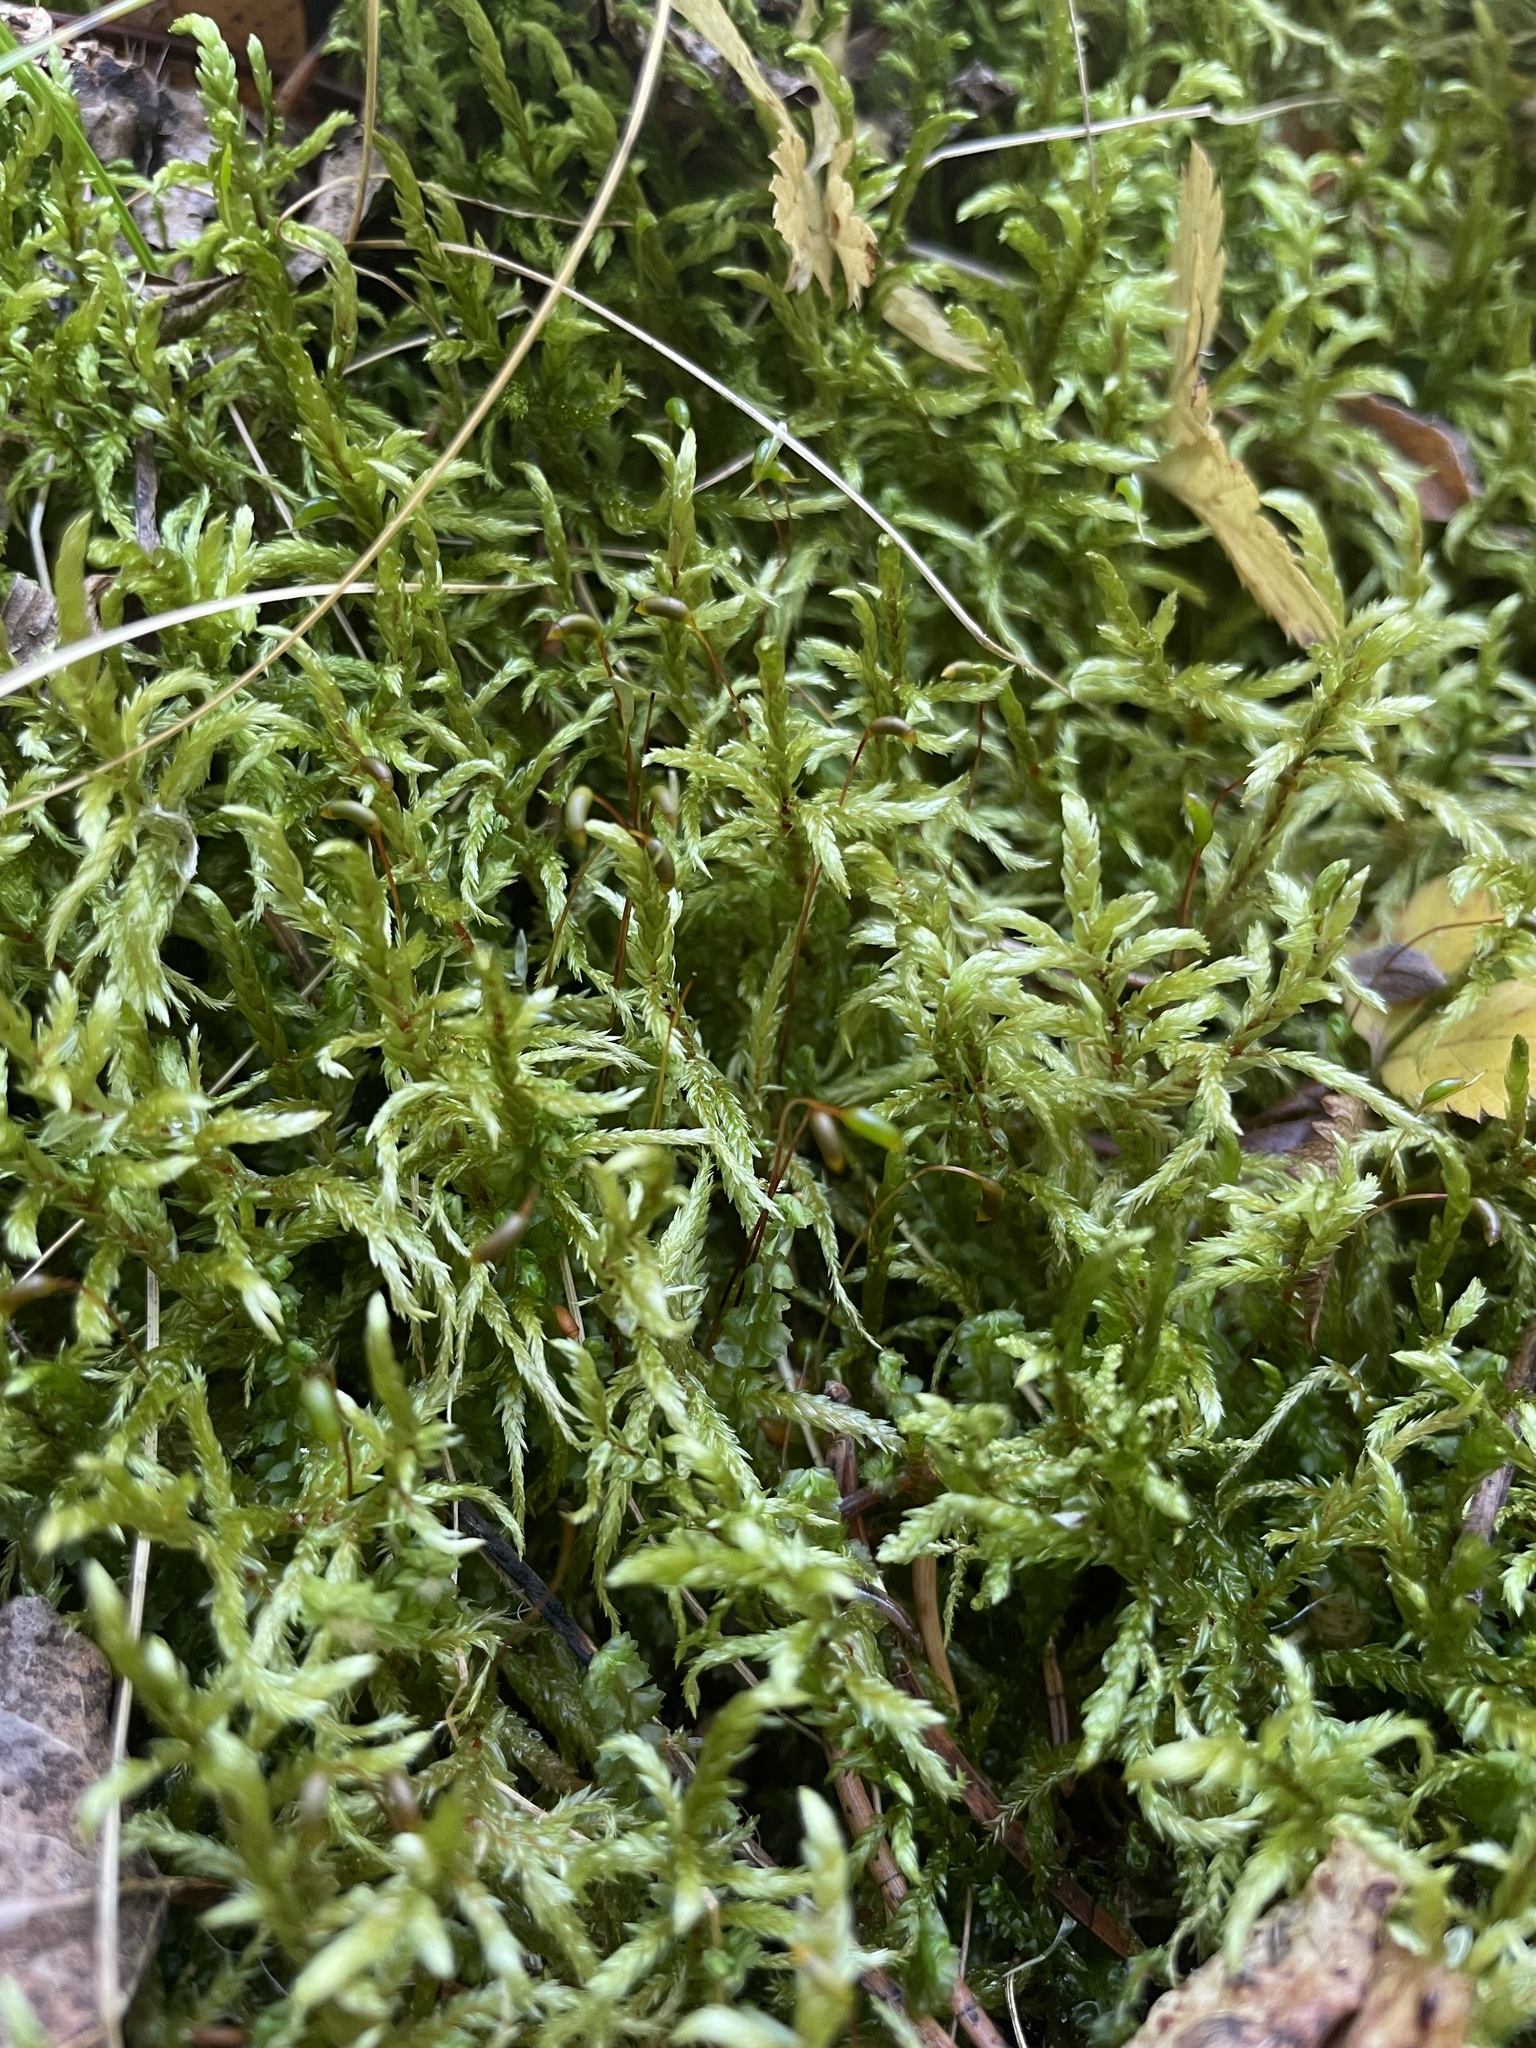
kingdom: Plantae
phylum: Bryophyta
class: Bryopsida
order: Hypnales
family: Hylocomiaceae
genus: Pleurozium
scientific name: Pleurozium schreberi
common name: Red-stemmed feather moss
